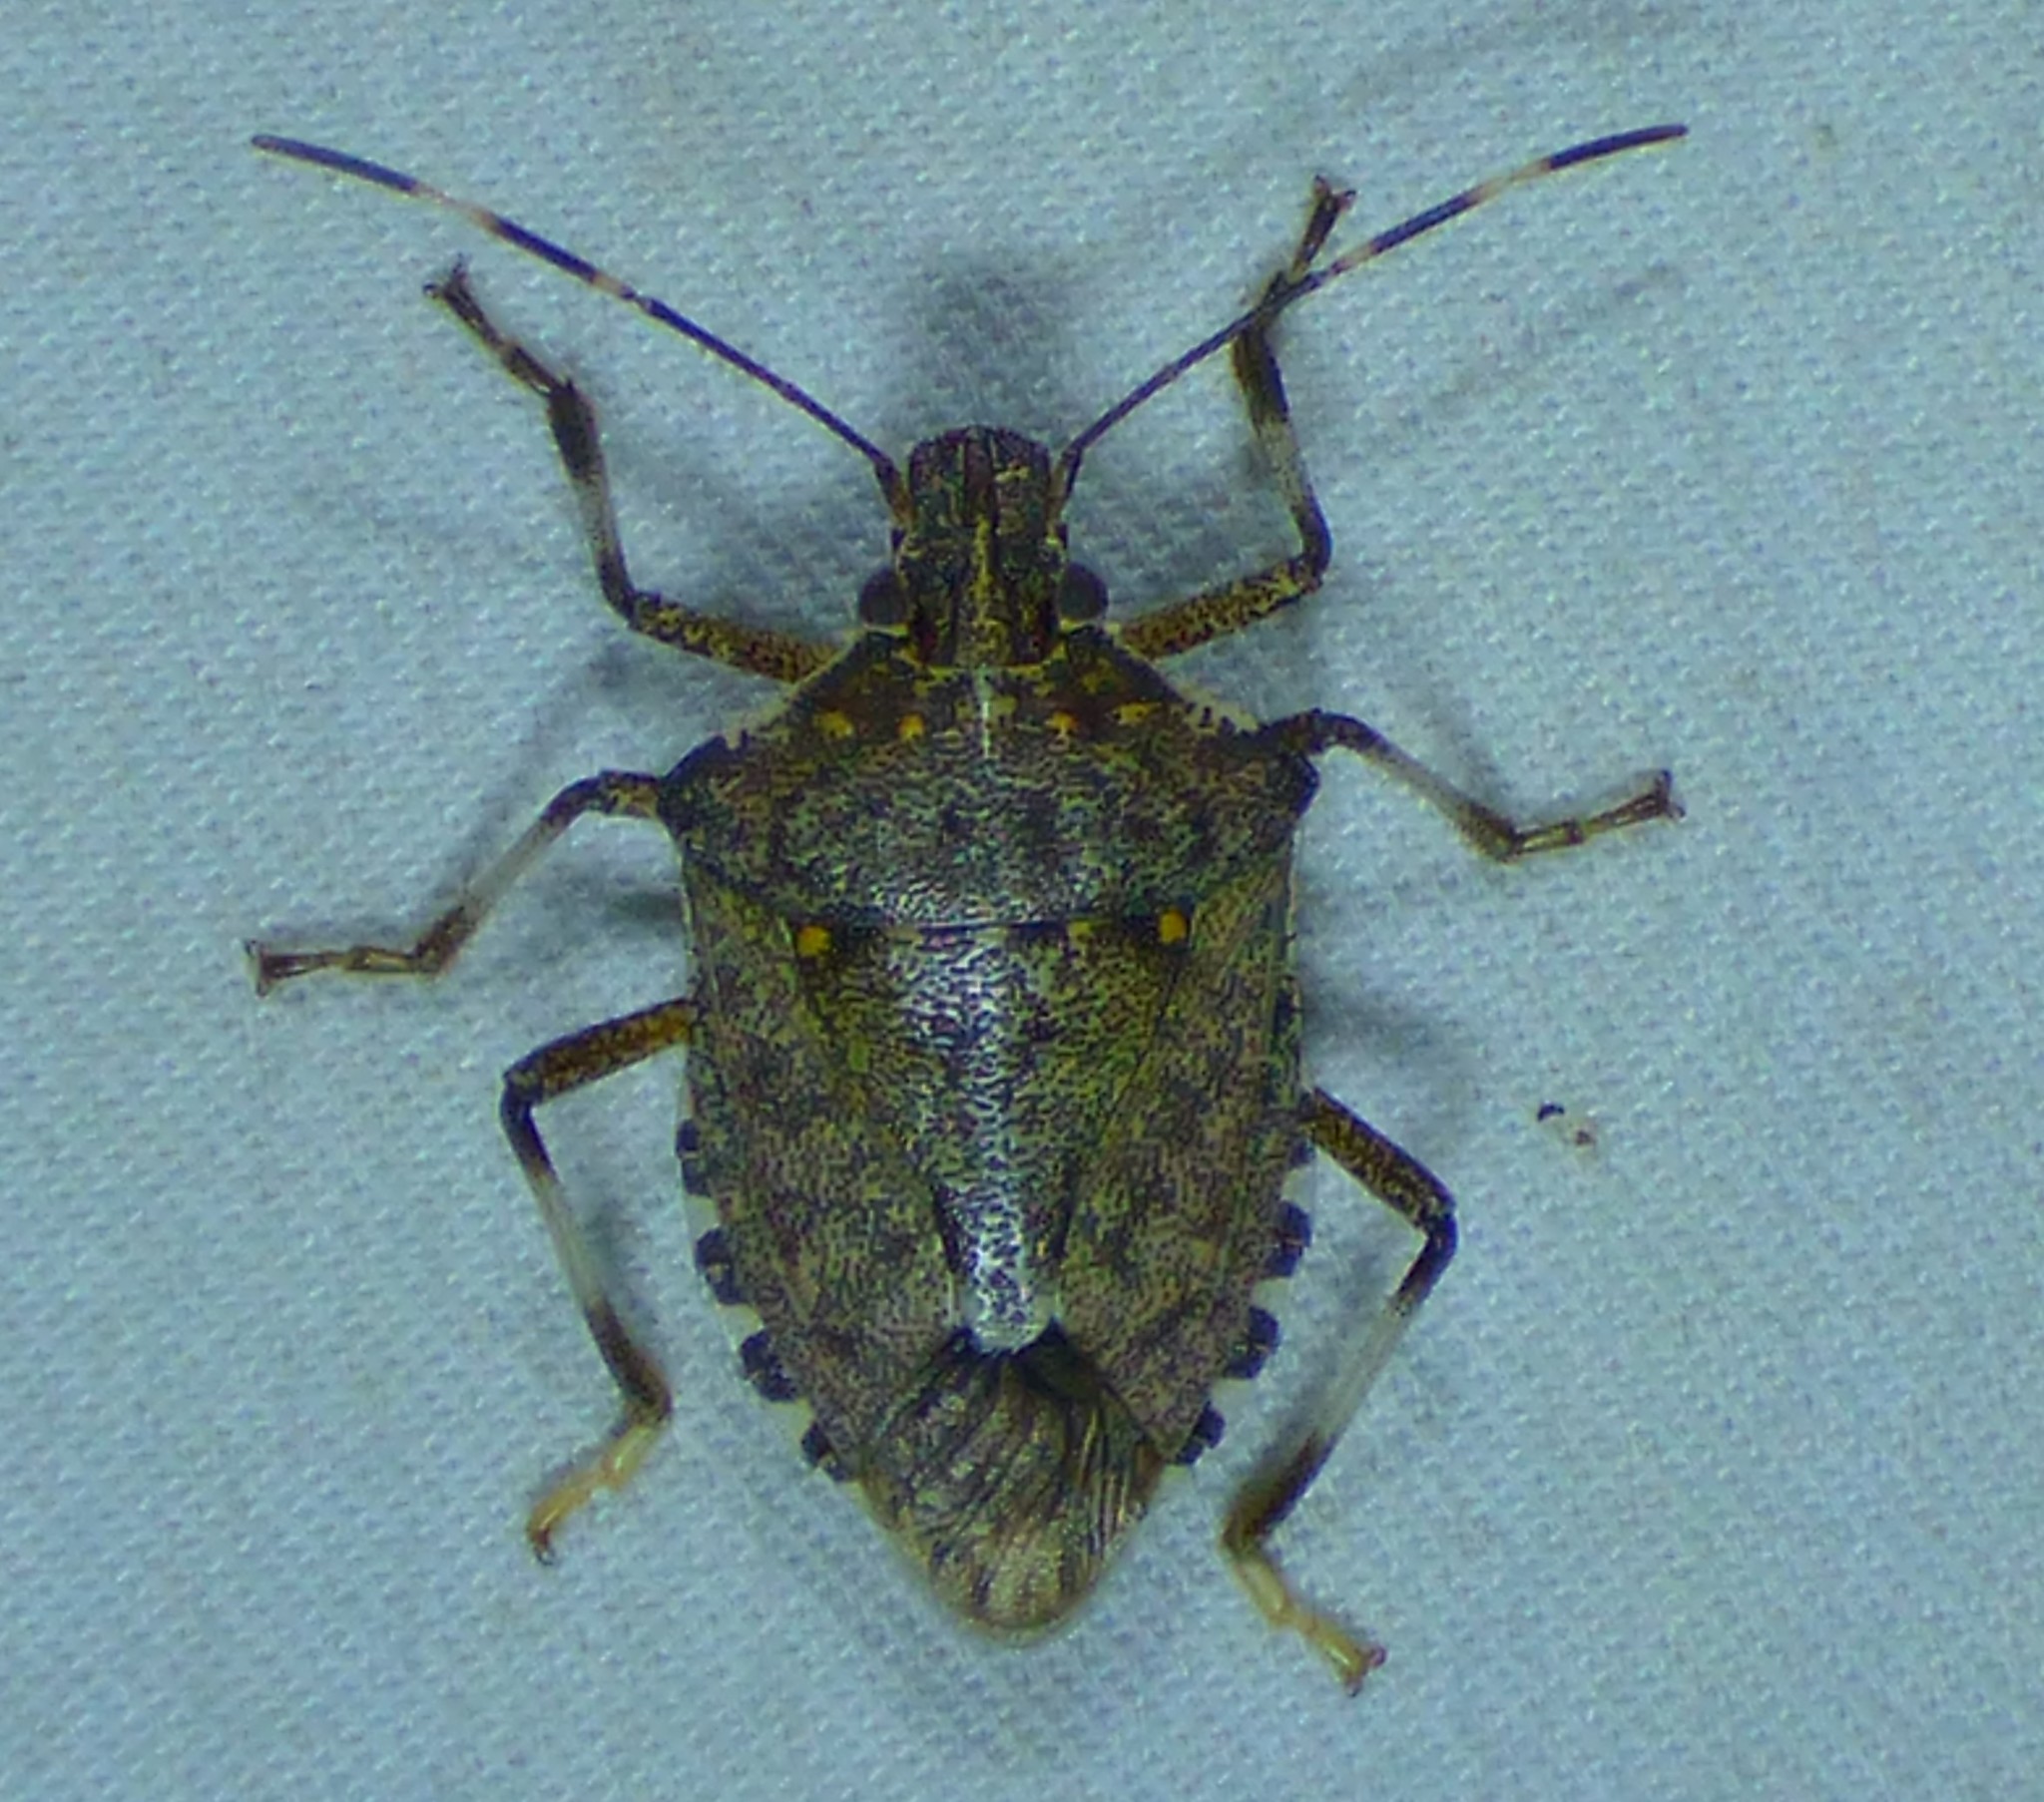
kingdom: Animalia
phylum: Arthropoda
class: Insecta
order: Hemiptera
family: Pentatomidae
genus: Halyomorpha
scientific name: Halyomorpha halys
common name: Brown marmorated stink bug
